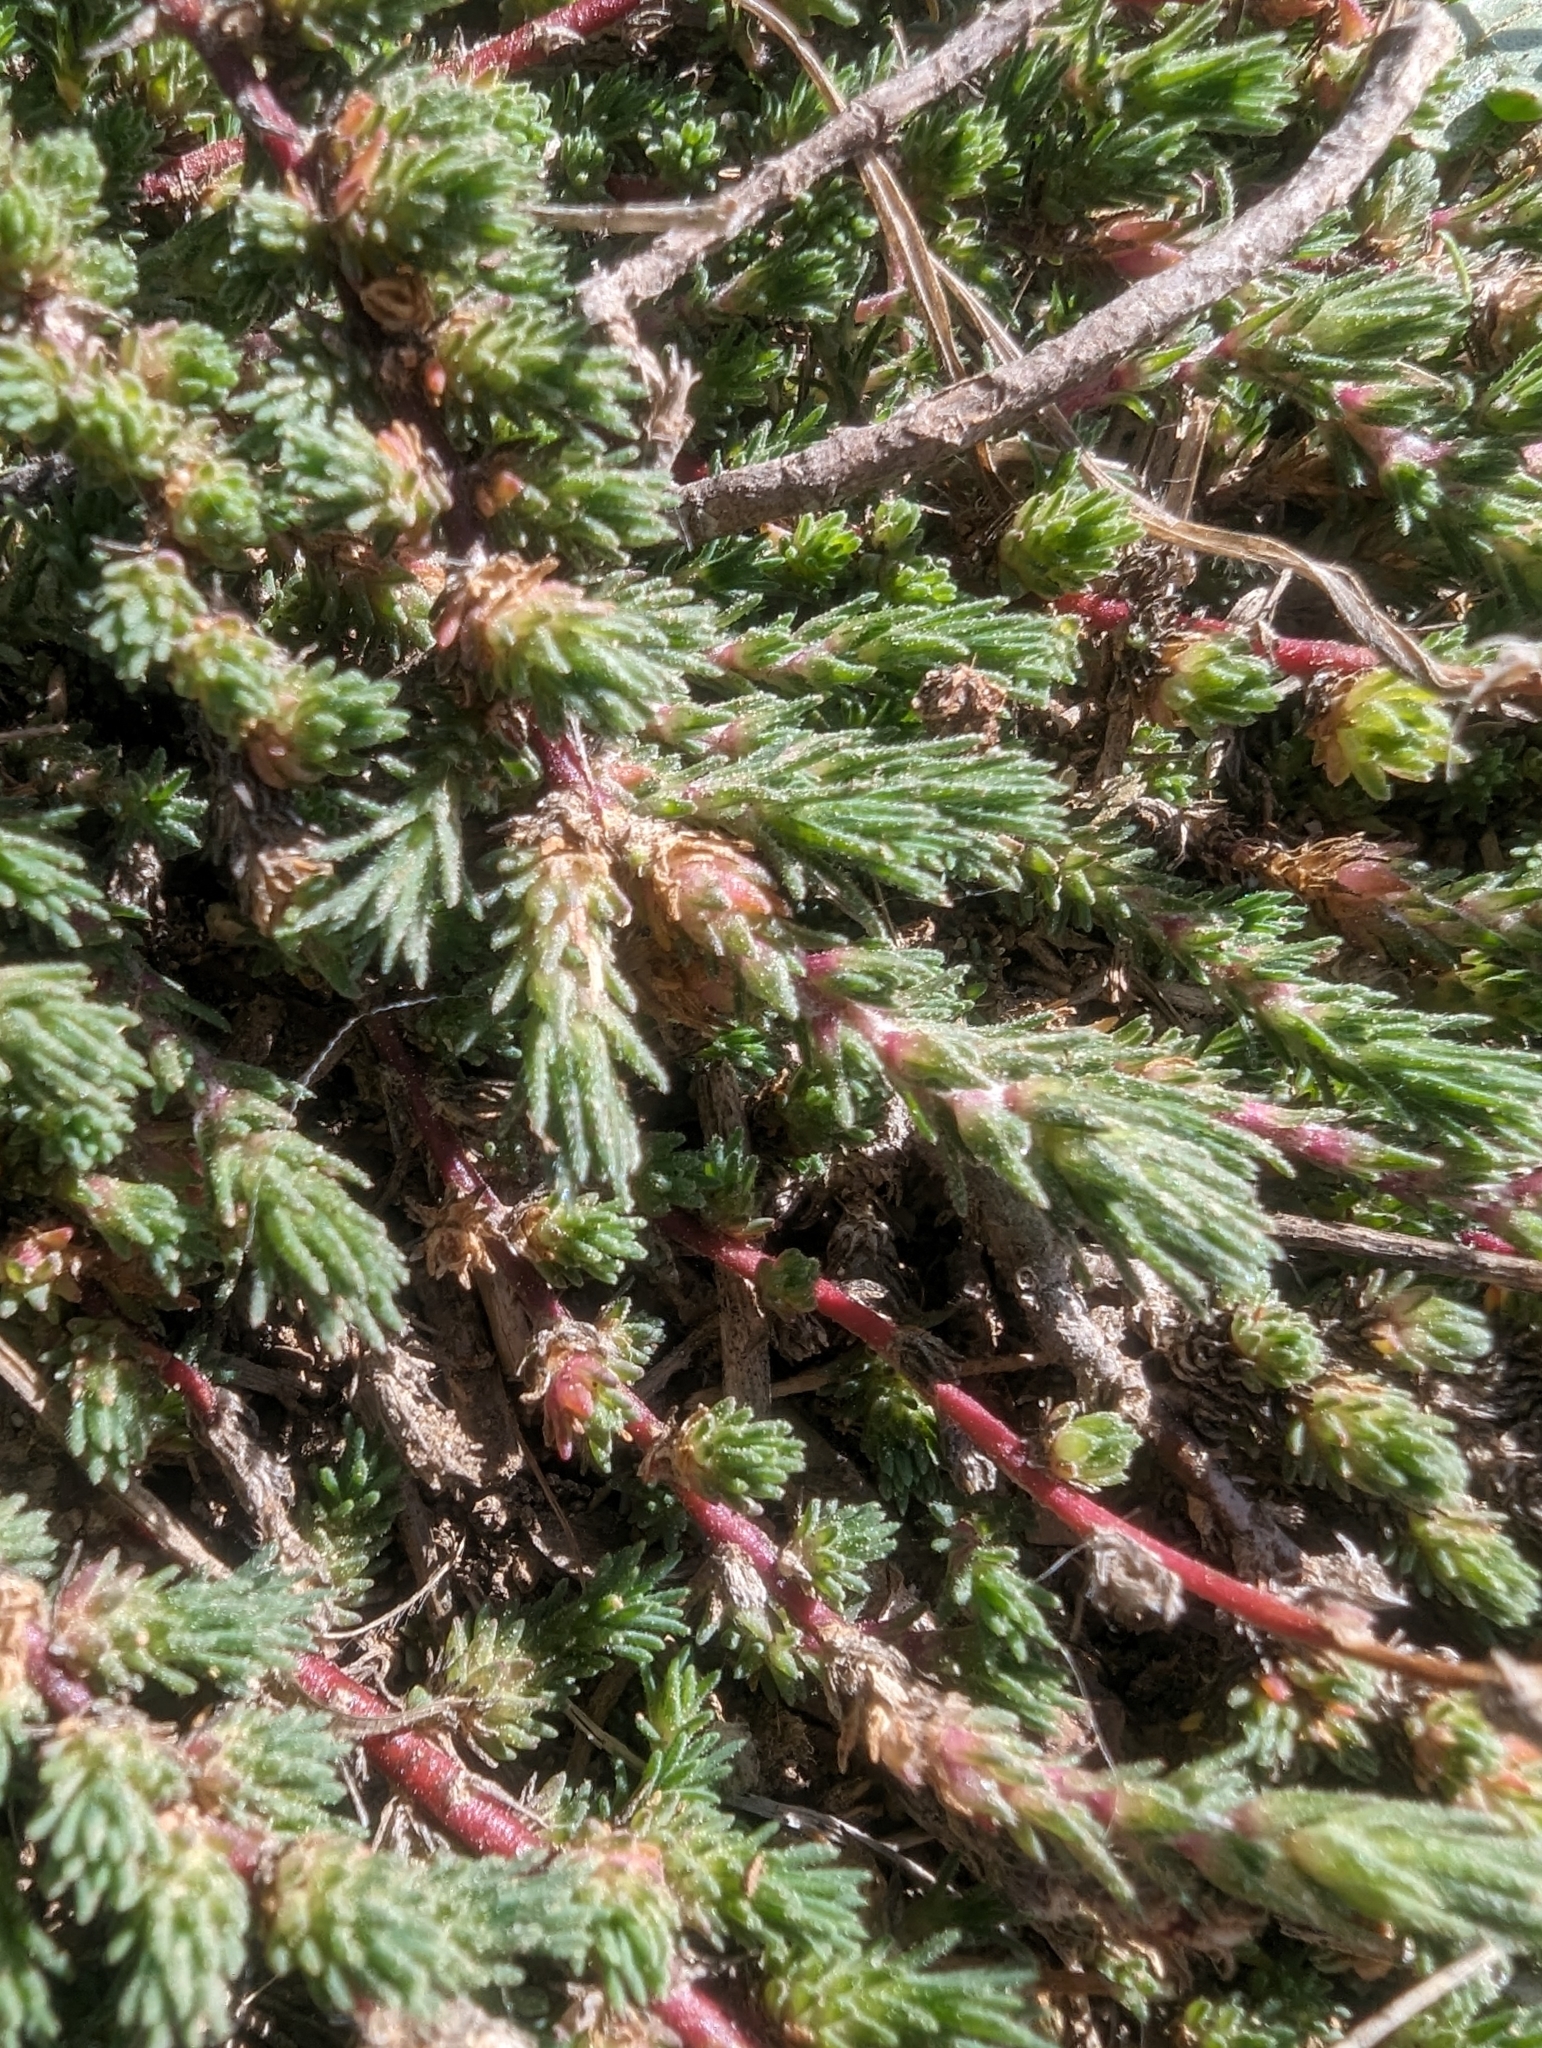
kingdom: Plantae
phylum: Tracheophyta
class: Magnoliopsida
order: Caryophyllales
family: Amaranthaceae
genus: Camphorosma
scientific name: Camphorosma monspeliaca
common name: Camphorfume
